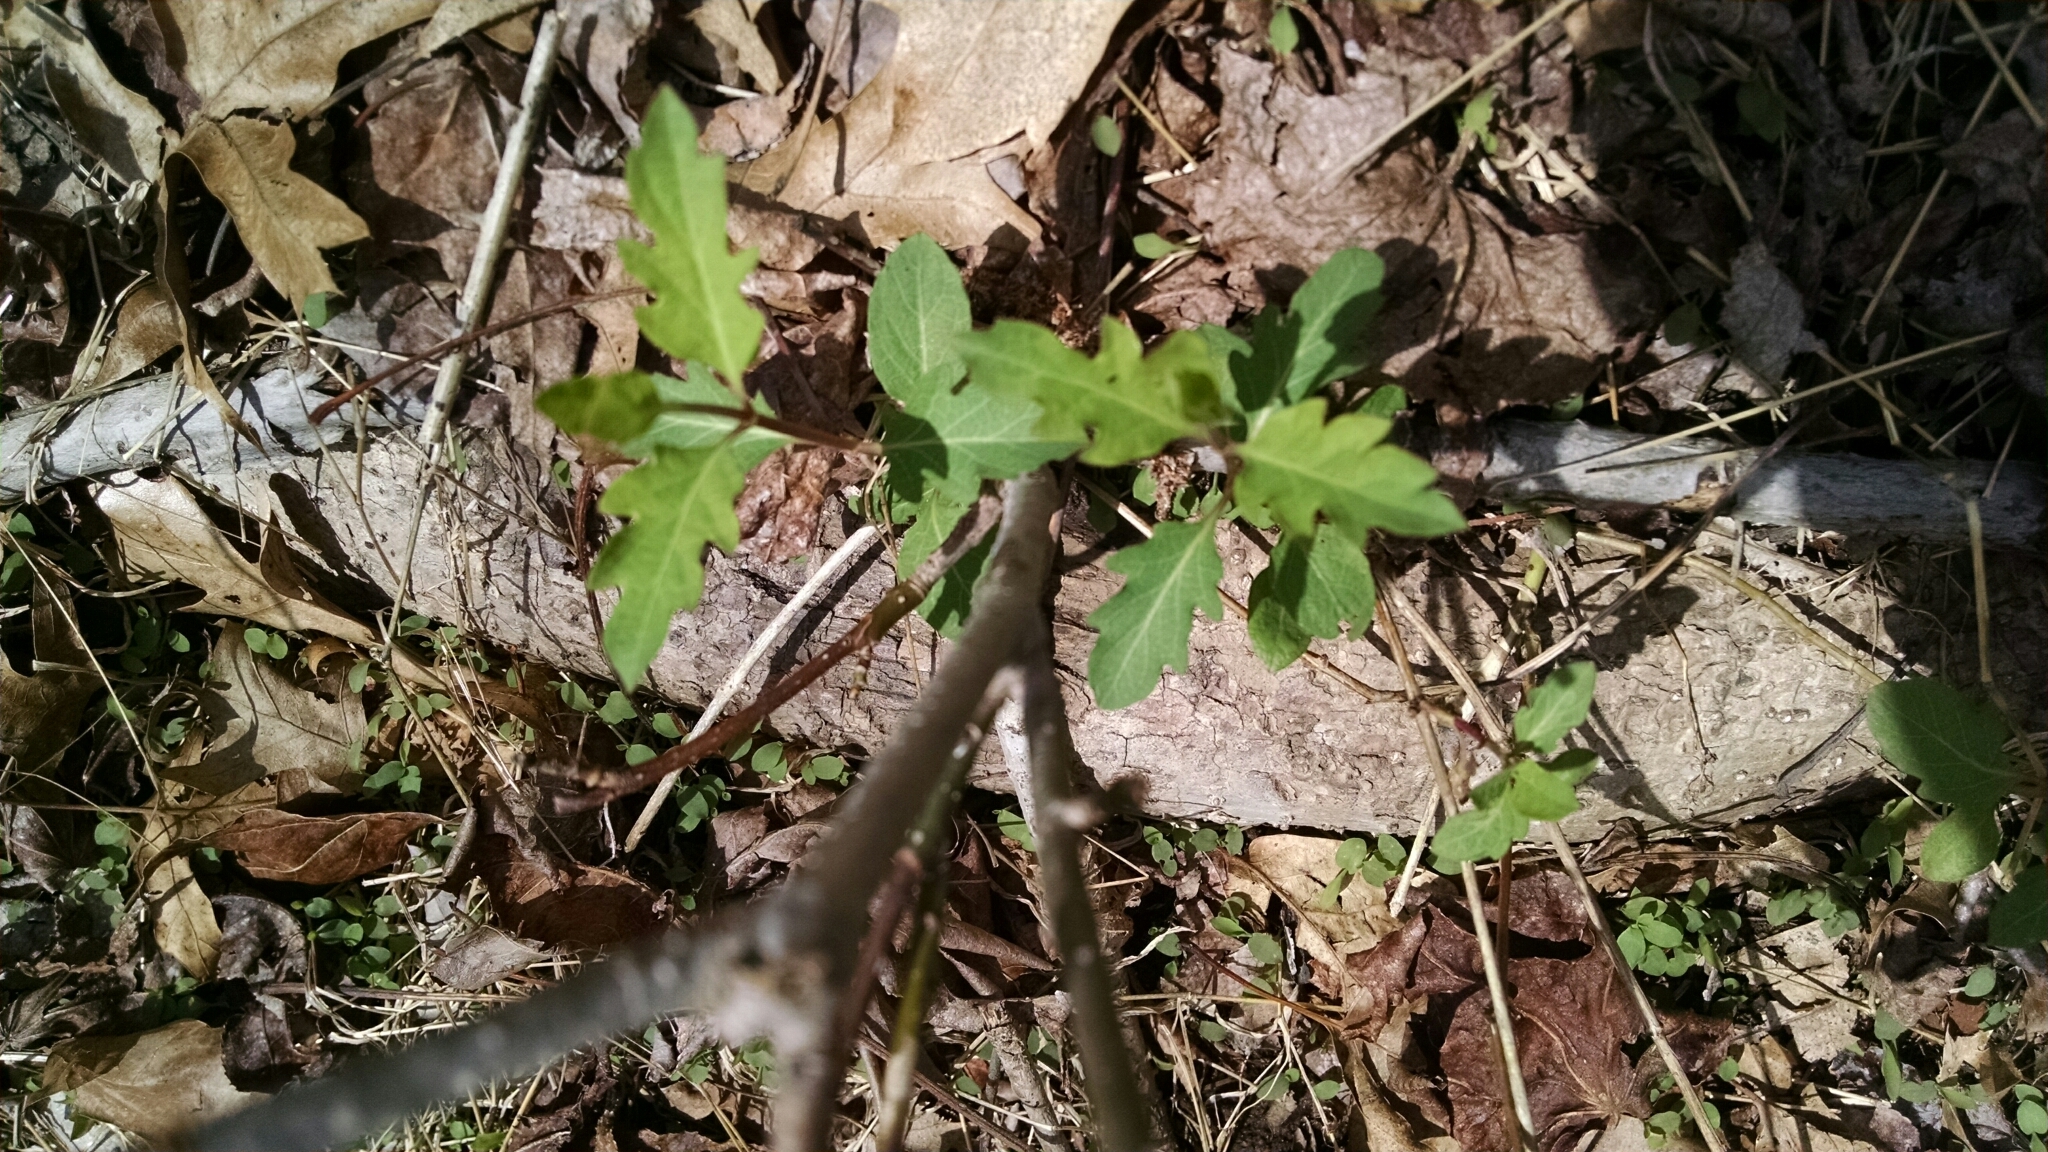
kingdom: Plantae
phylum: Tracheophyta
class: Magnoliopsida
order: Dipsacales
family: Caprifoliaceae
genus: Lonicera
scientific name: Lonicera japonica
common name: Japanese honeysuckle
